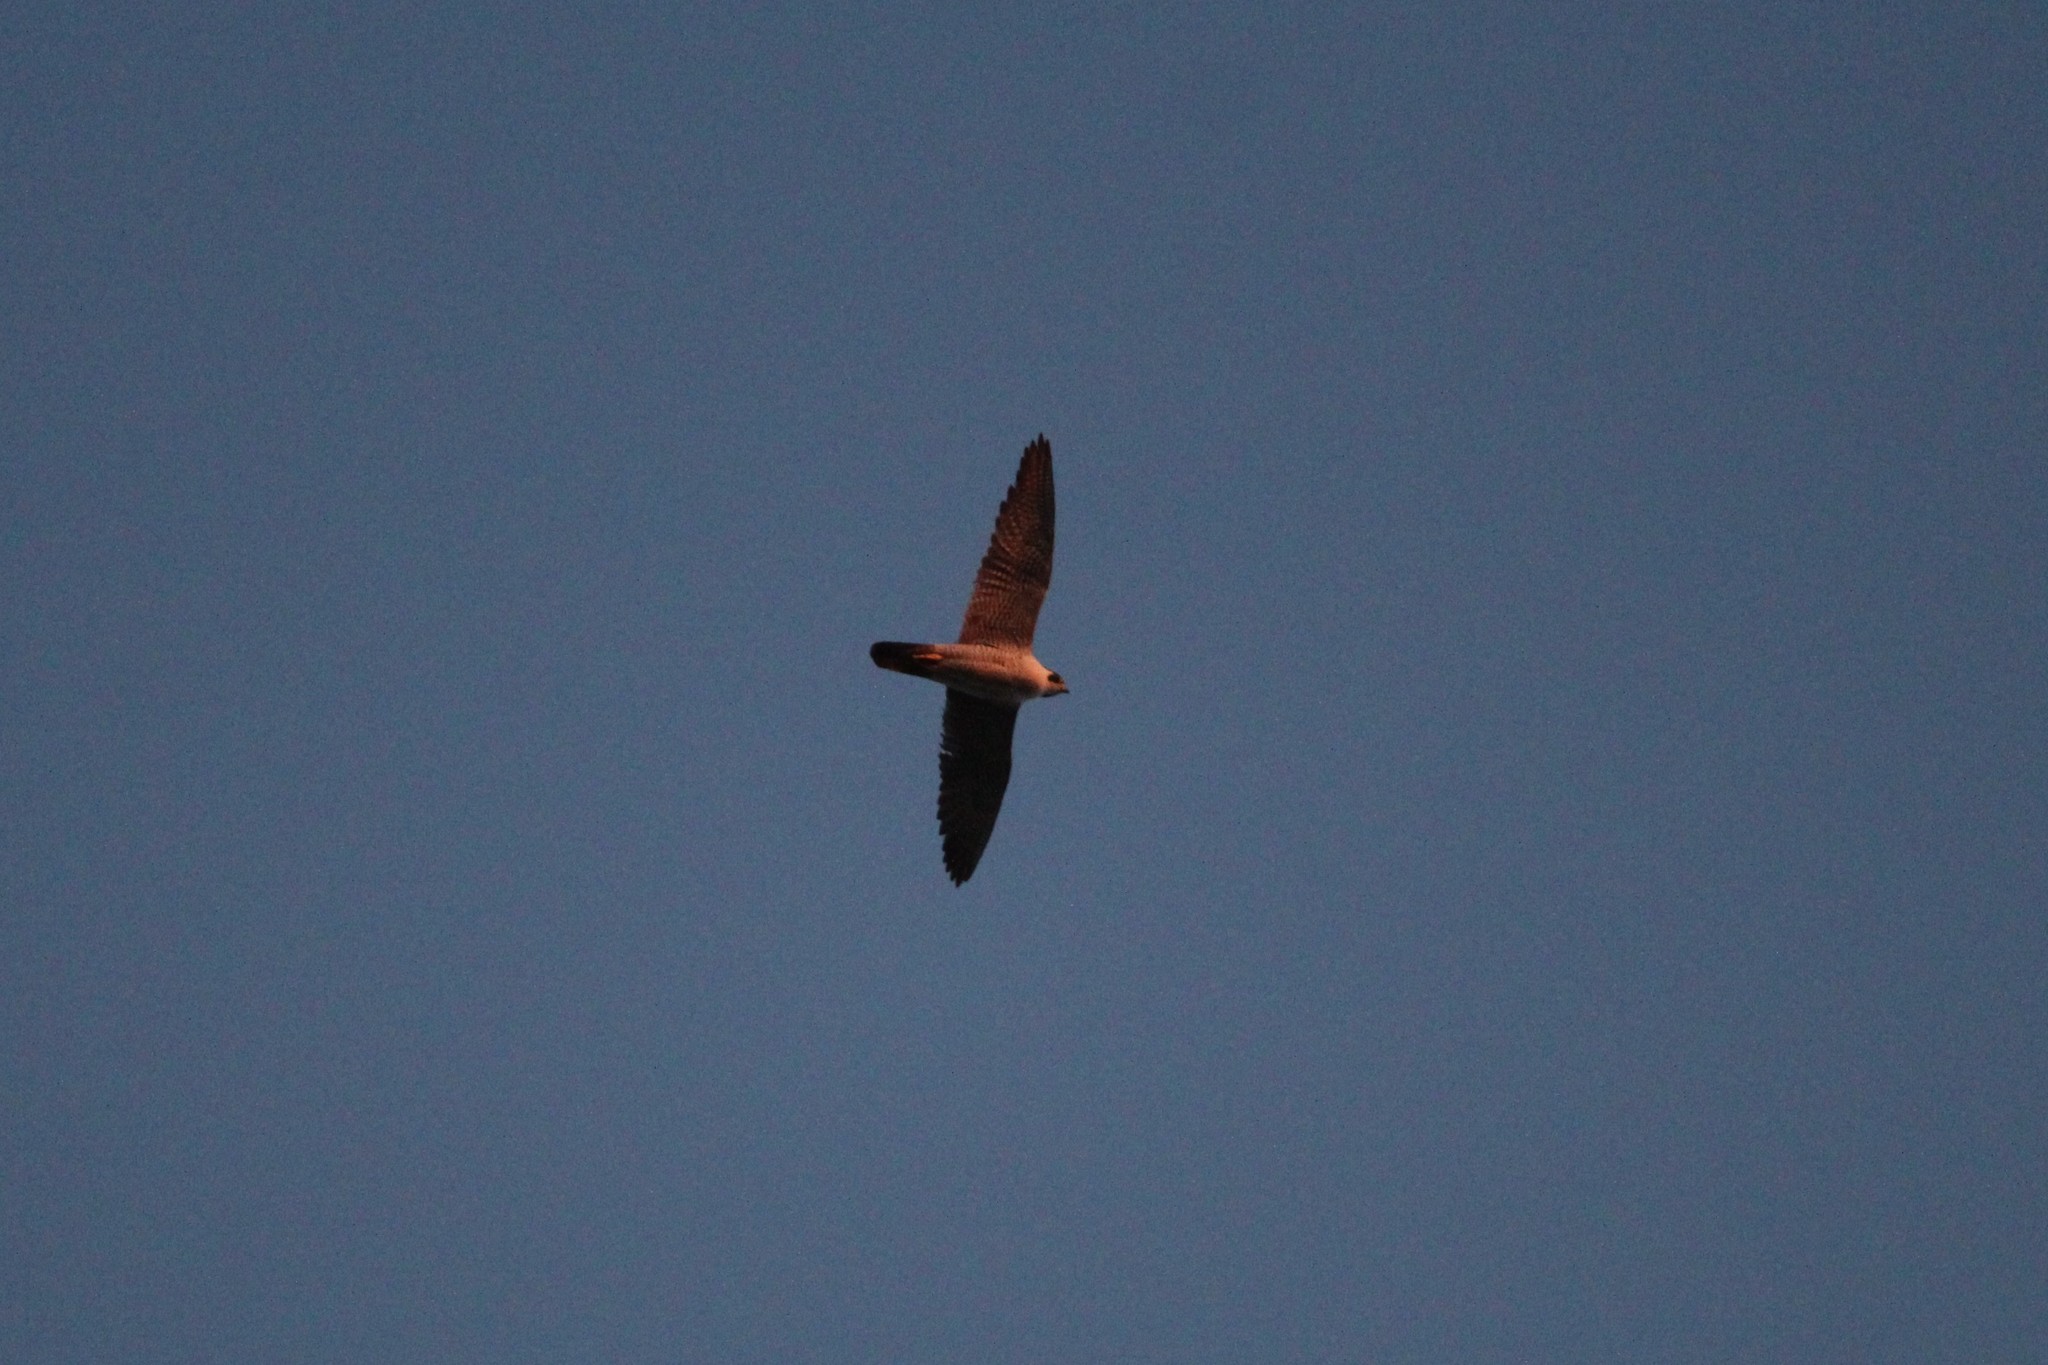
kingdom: Animalia
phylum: Chordata
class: Aves
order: Falconiformes
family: Falconidae
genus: Falco
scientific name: Falco peregrinus
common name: Peregrine falcon
